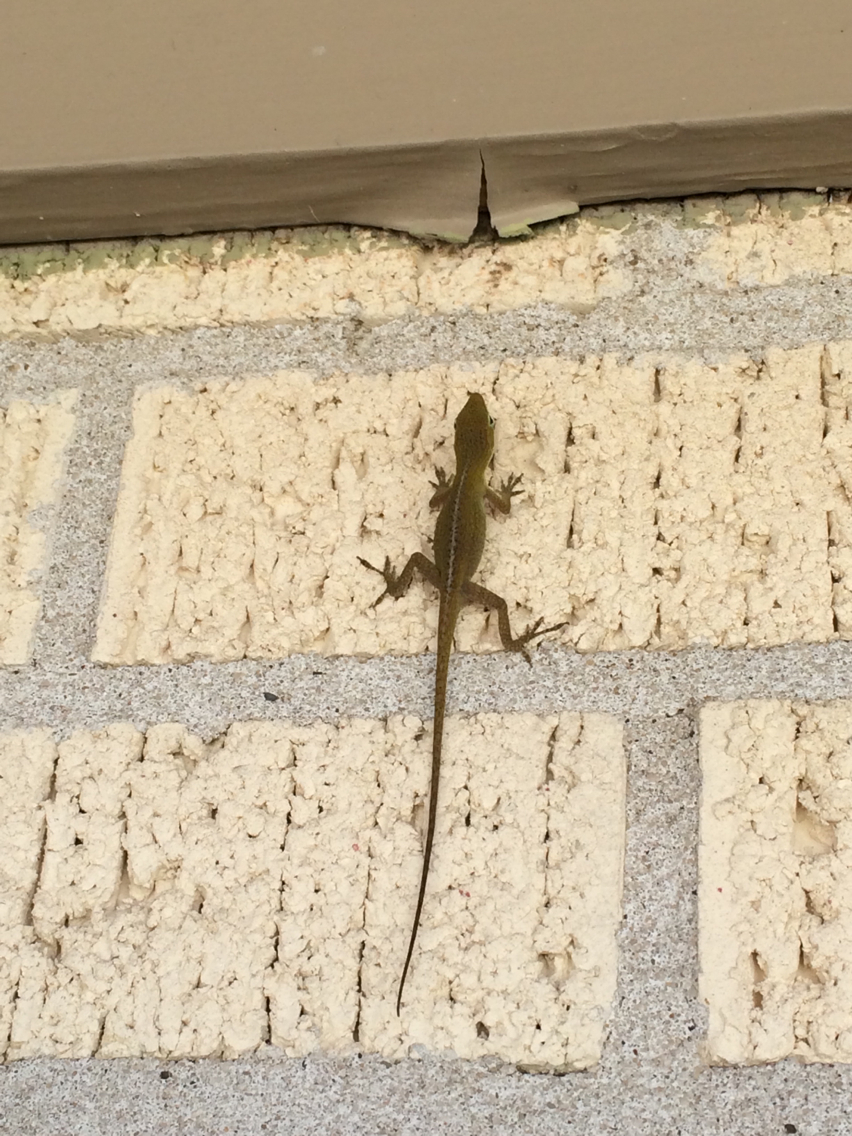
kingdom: Animalia
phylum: Chordata
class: Squamata
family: Dactyloidae
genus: Anolis
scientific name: Anolis carolinensis
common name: Green anole
